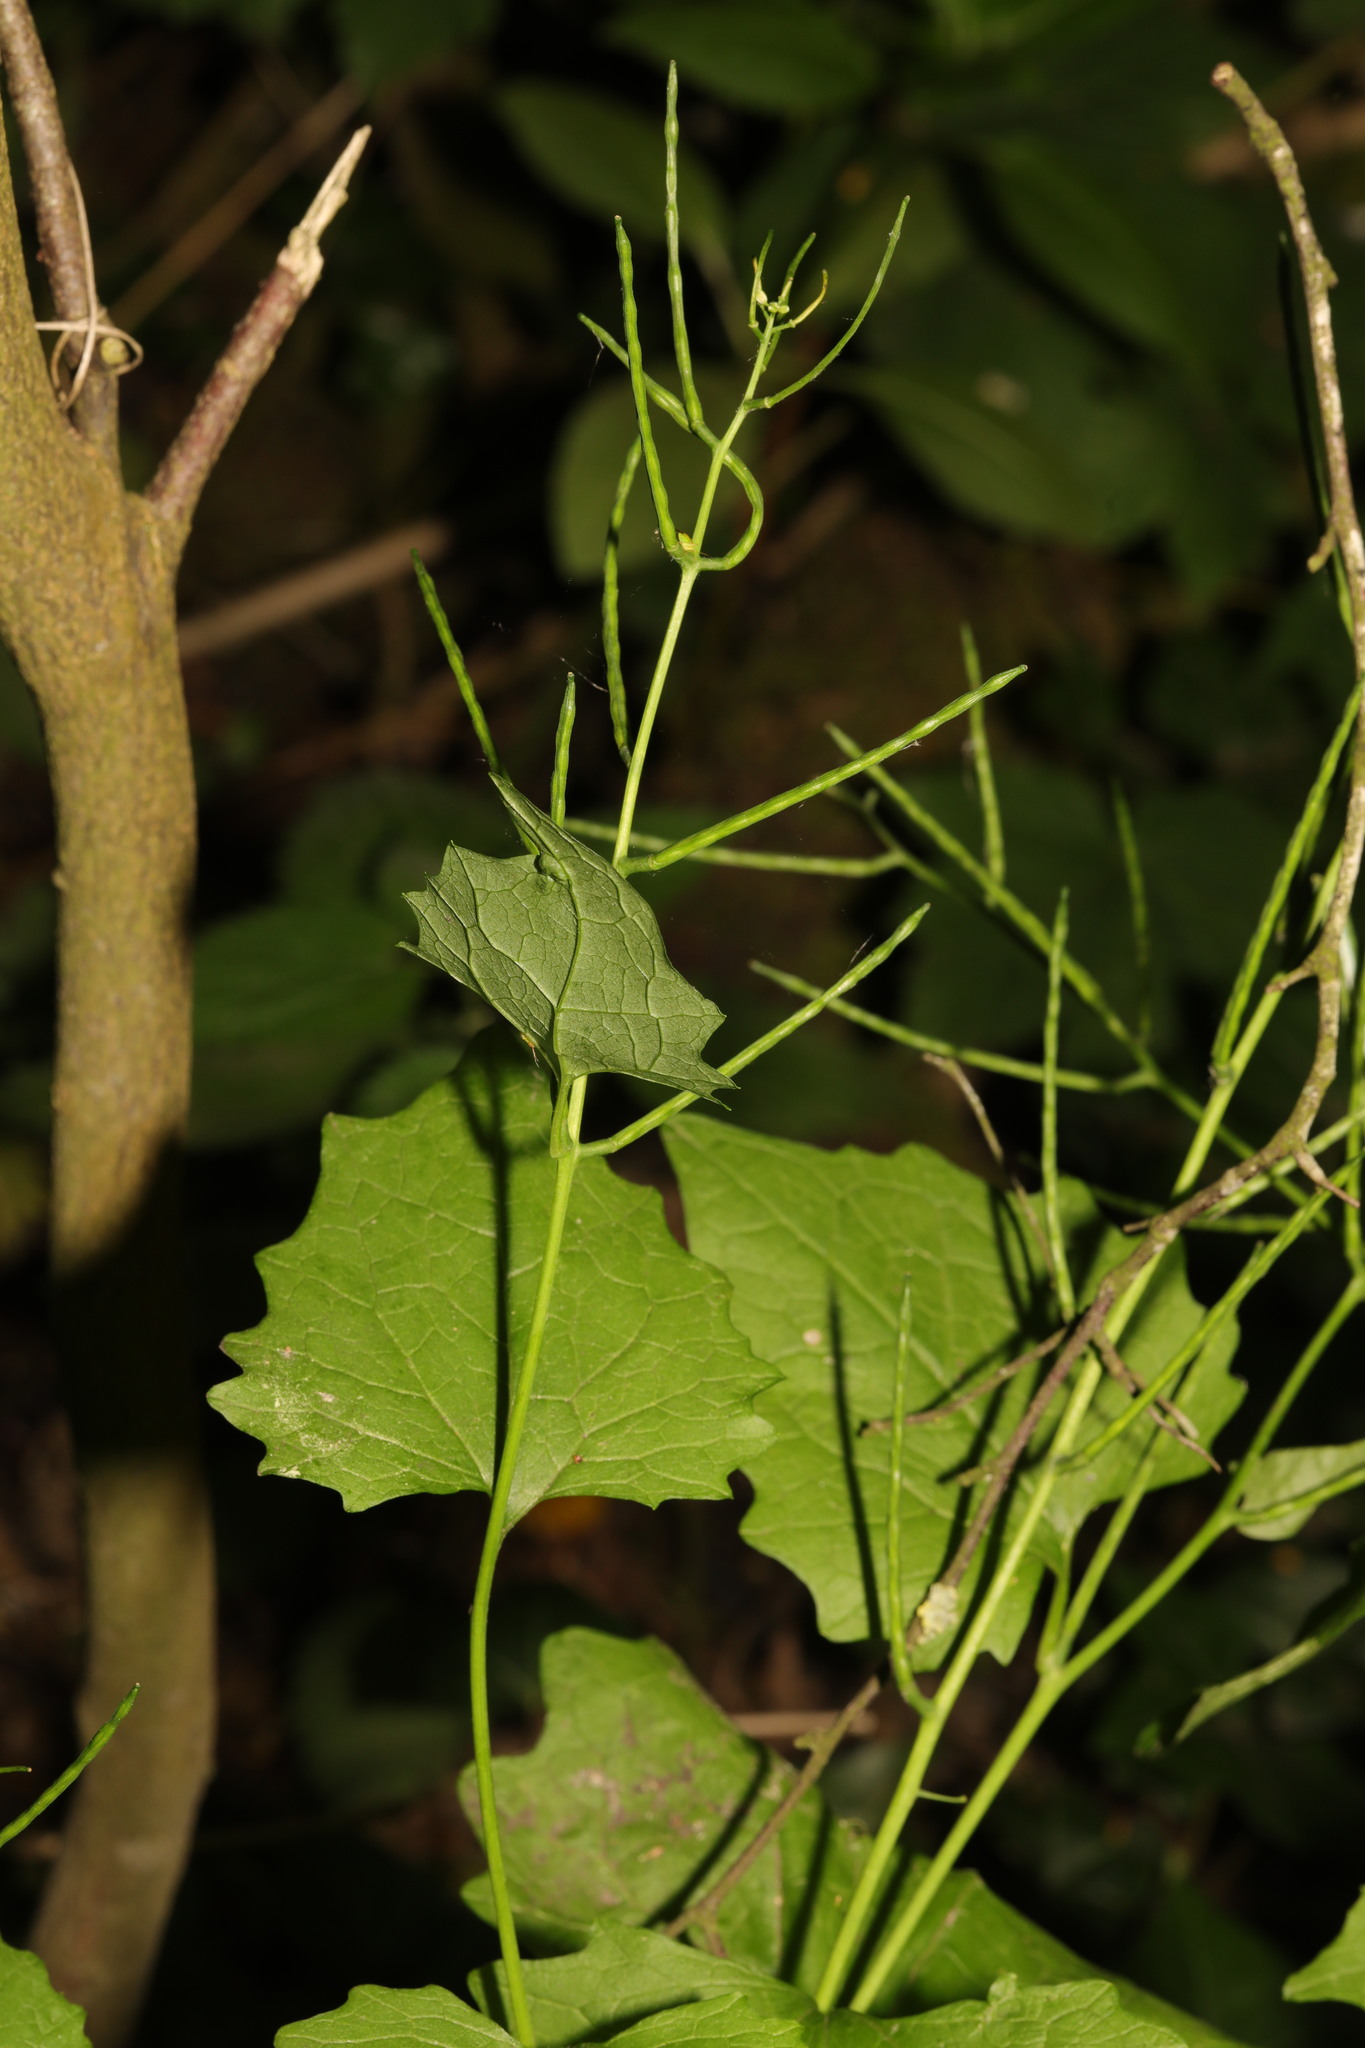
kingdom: Plantae
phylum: Tracheophyta
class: Magnoliopsida
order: Brassicales
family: Brassicaceae
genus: Alliaria
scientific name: Alliaria petiolata
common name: Garlic mustard
